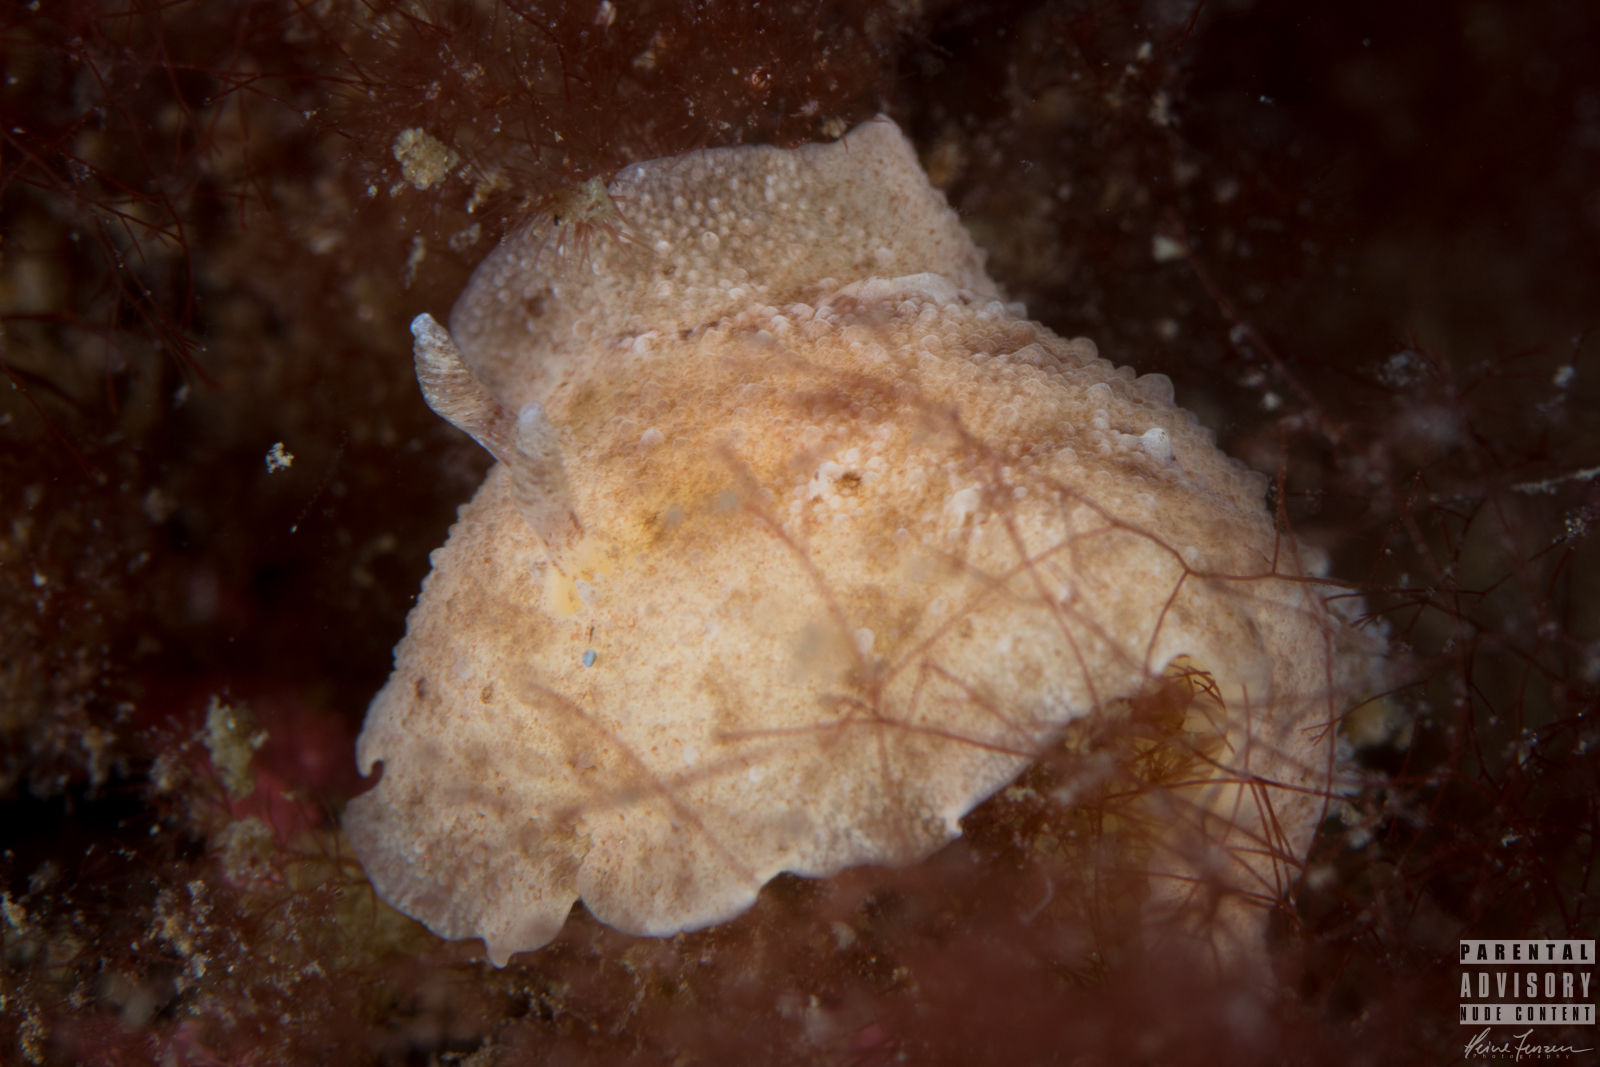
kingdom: Animalia
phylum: Mollusca
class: Gastropoda
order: Nudibranchia
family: Discodorididae
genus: Geitodoris
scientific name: Geitodoris planata
